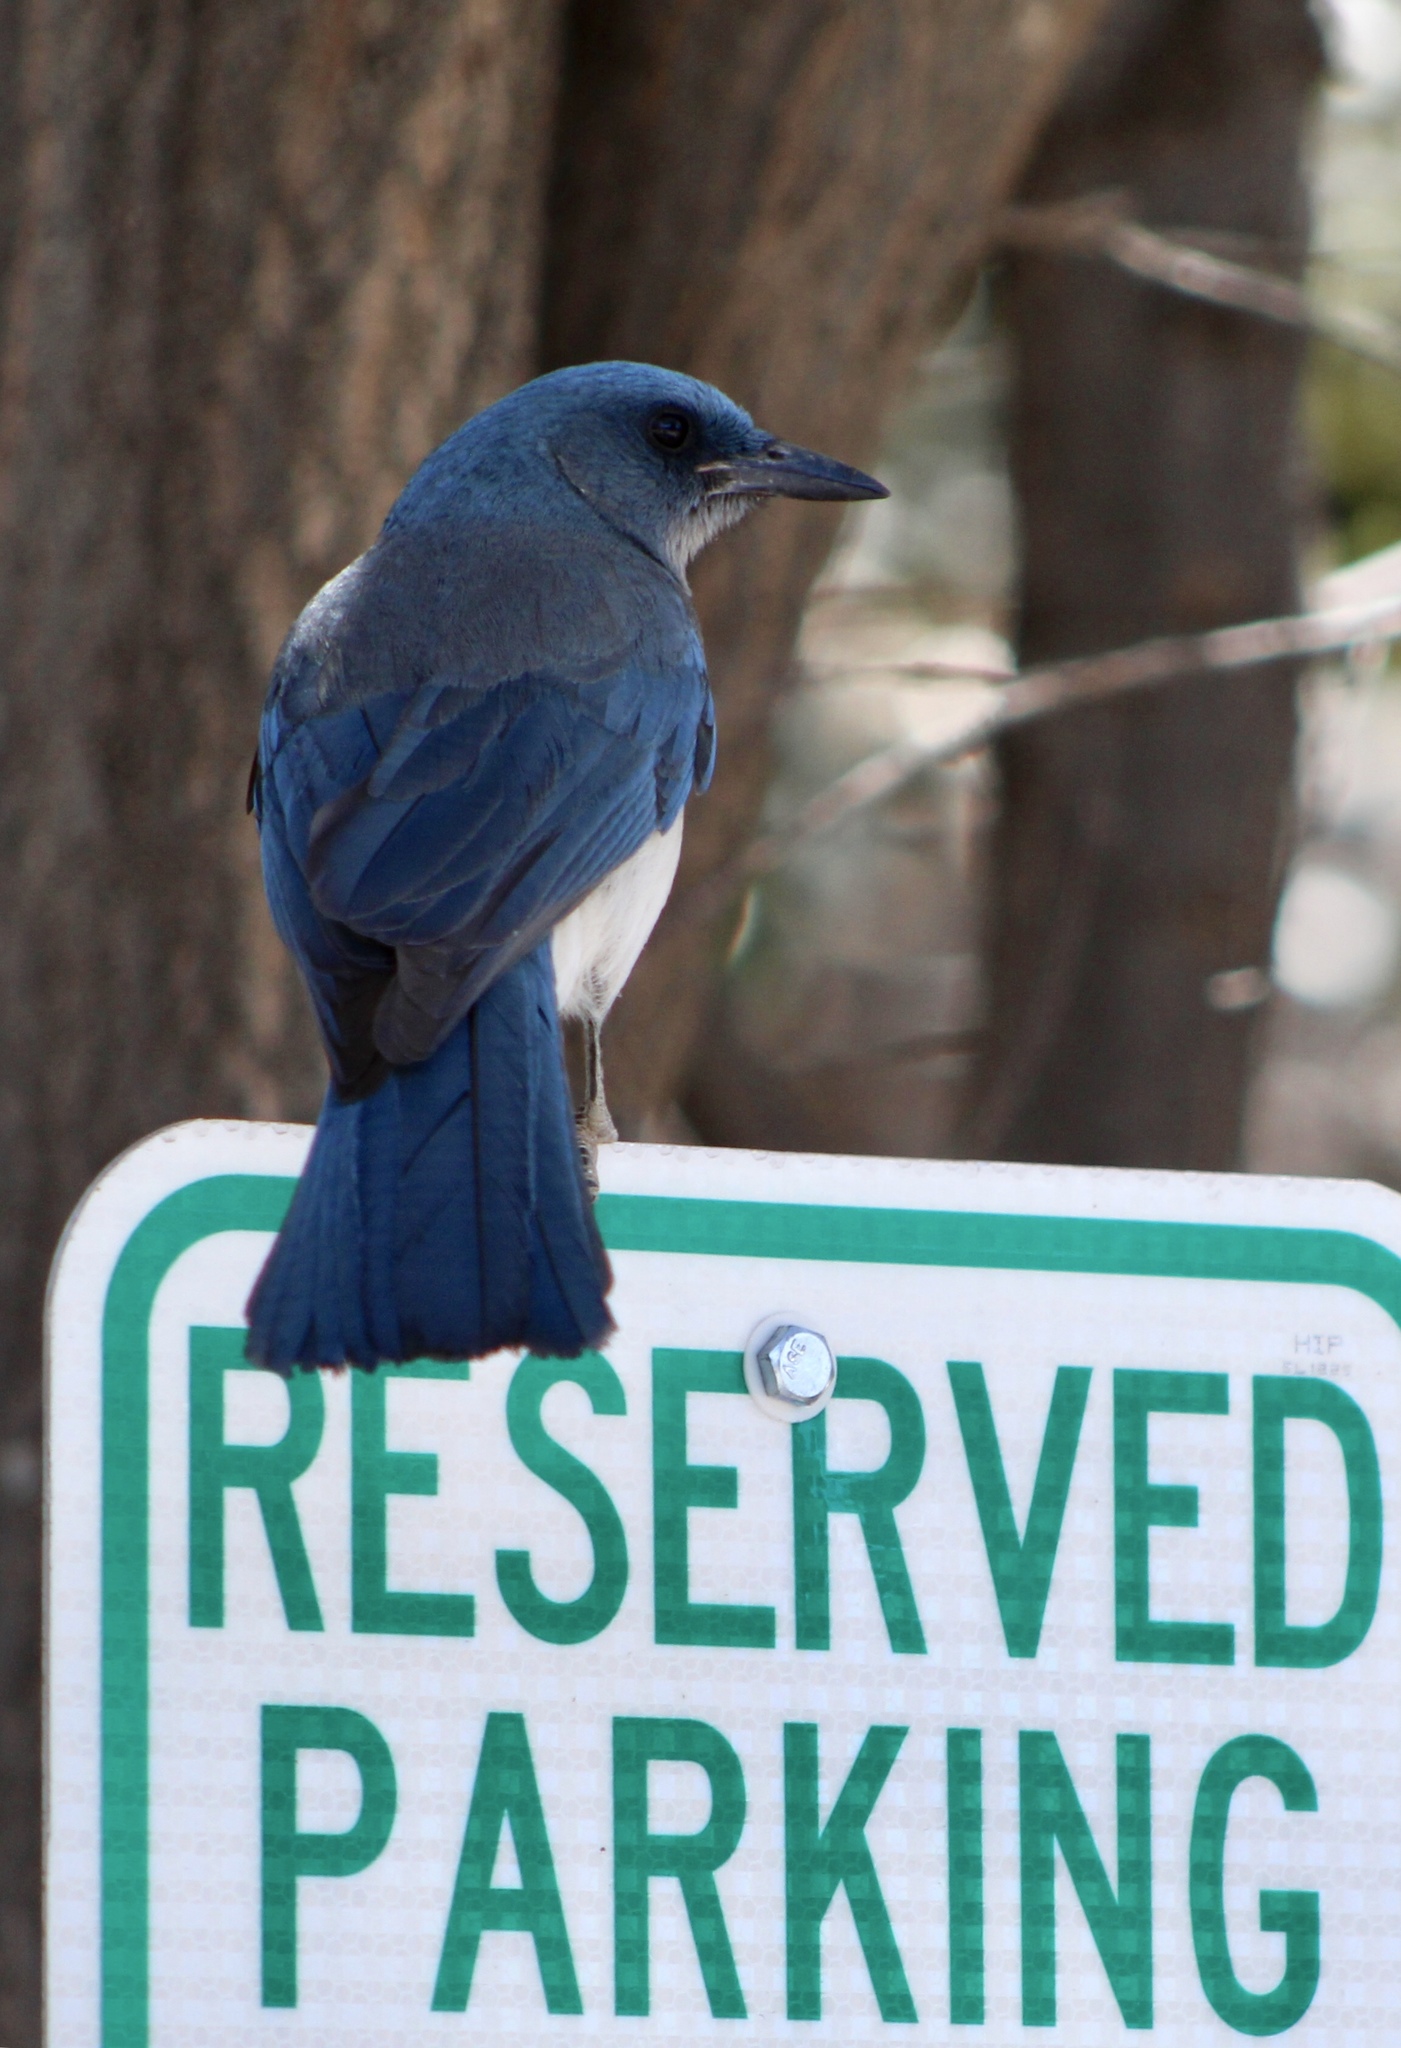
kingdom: Animalia
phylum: Chordata
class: Aves
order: Passeriformes
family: Corvidae
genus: Aphelocoma
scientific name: Aphelocoma wollweberi
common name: Mexican jay
